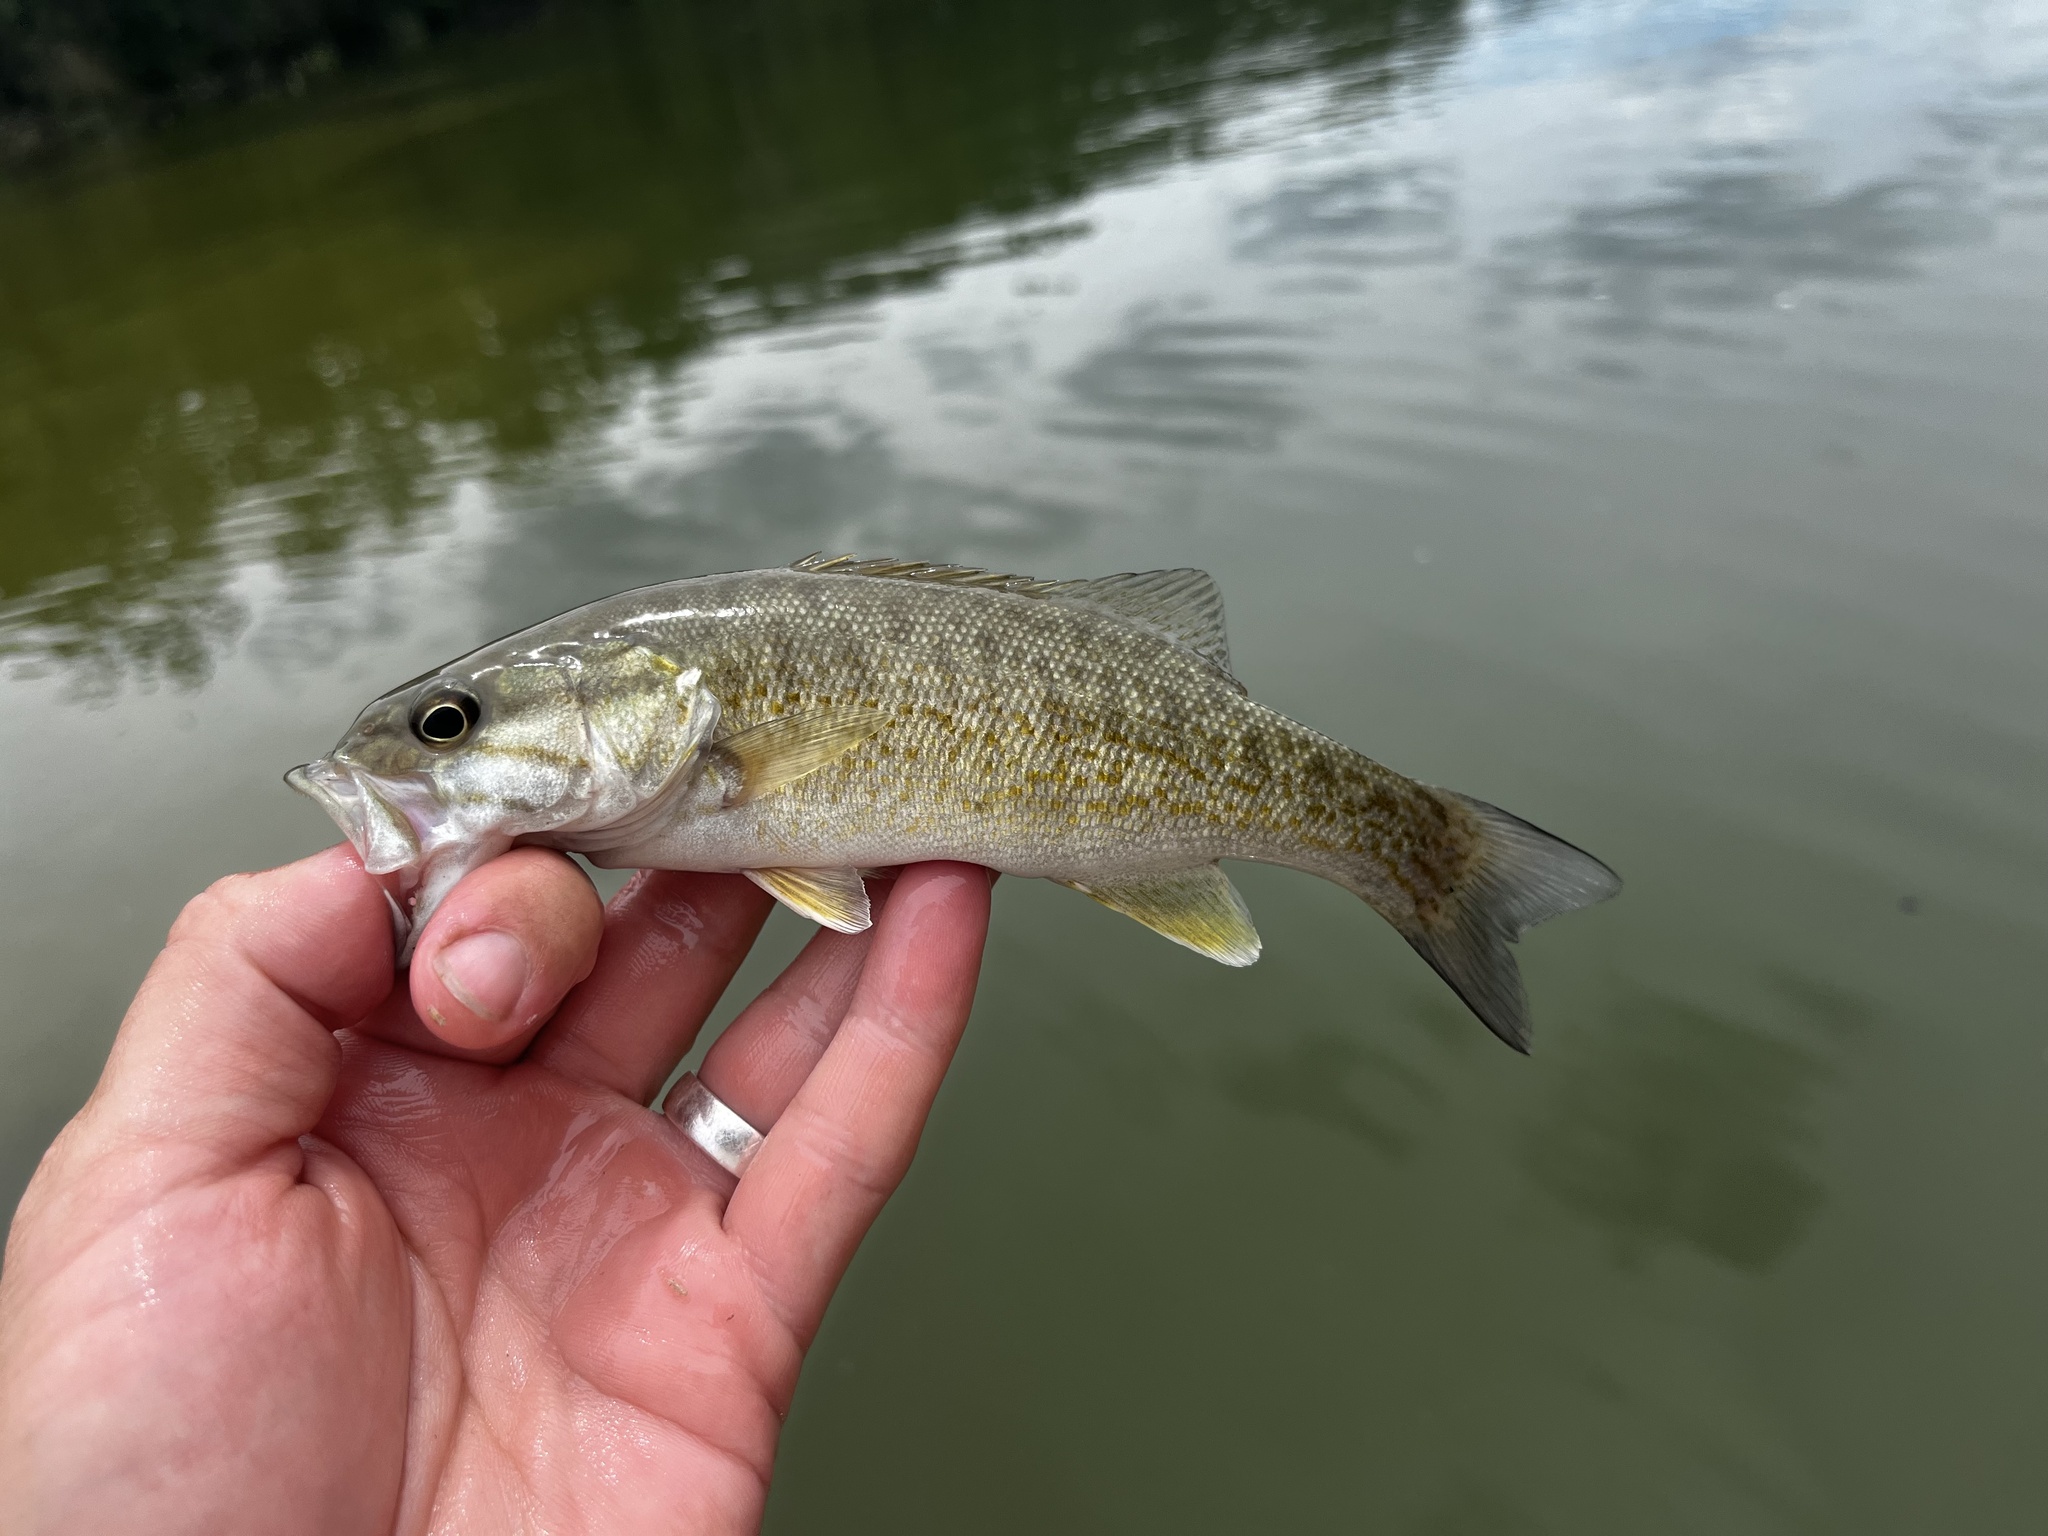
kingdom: Animalia
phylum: Chordata
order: Perciformes
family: Centrarchidae
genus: Micropterus
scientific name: Micropterus dolomieu
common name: Smallmouth bass
